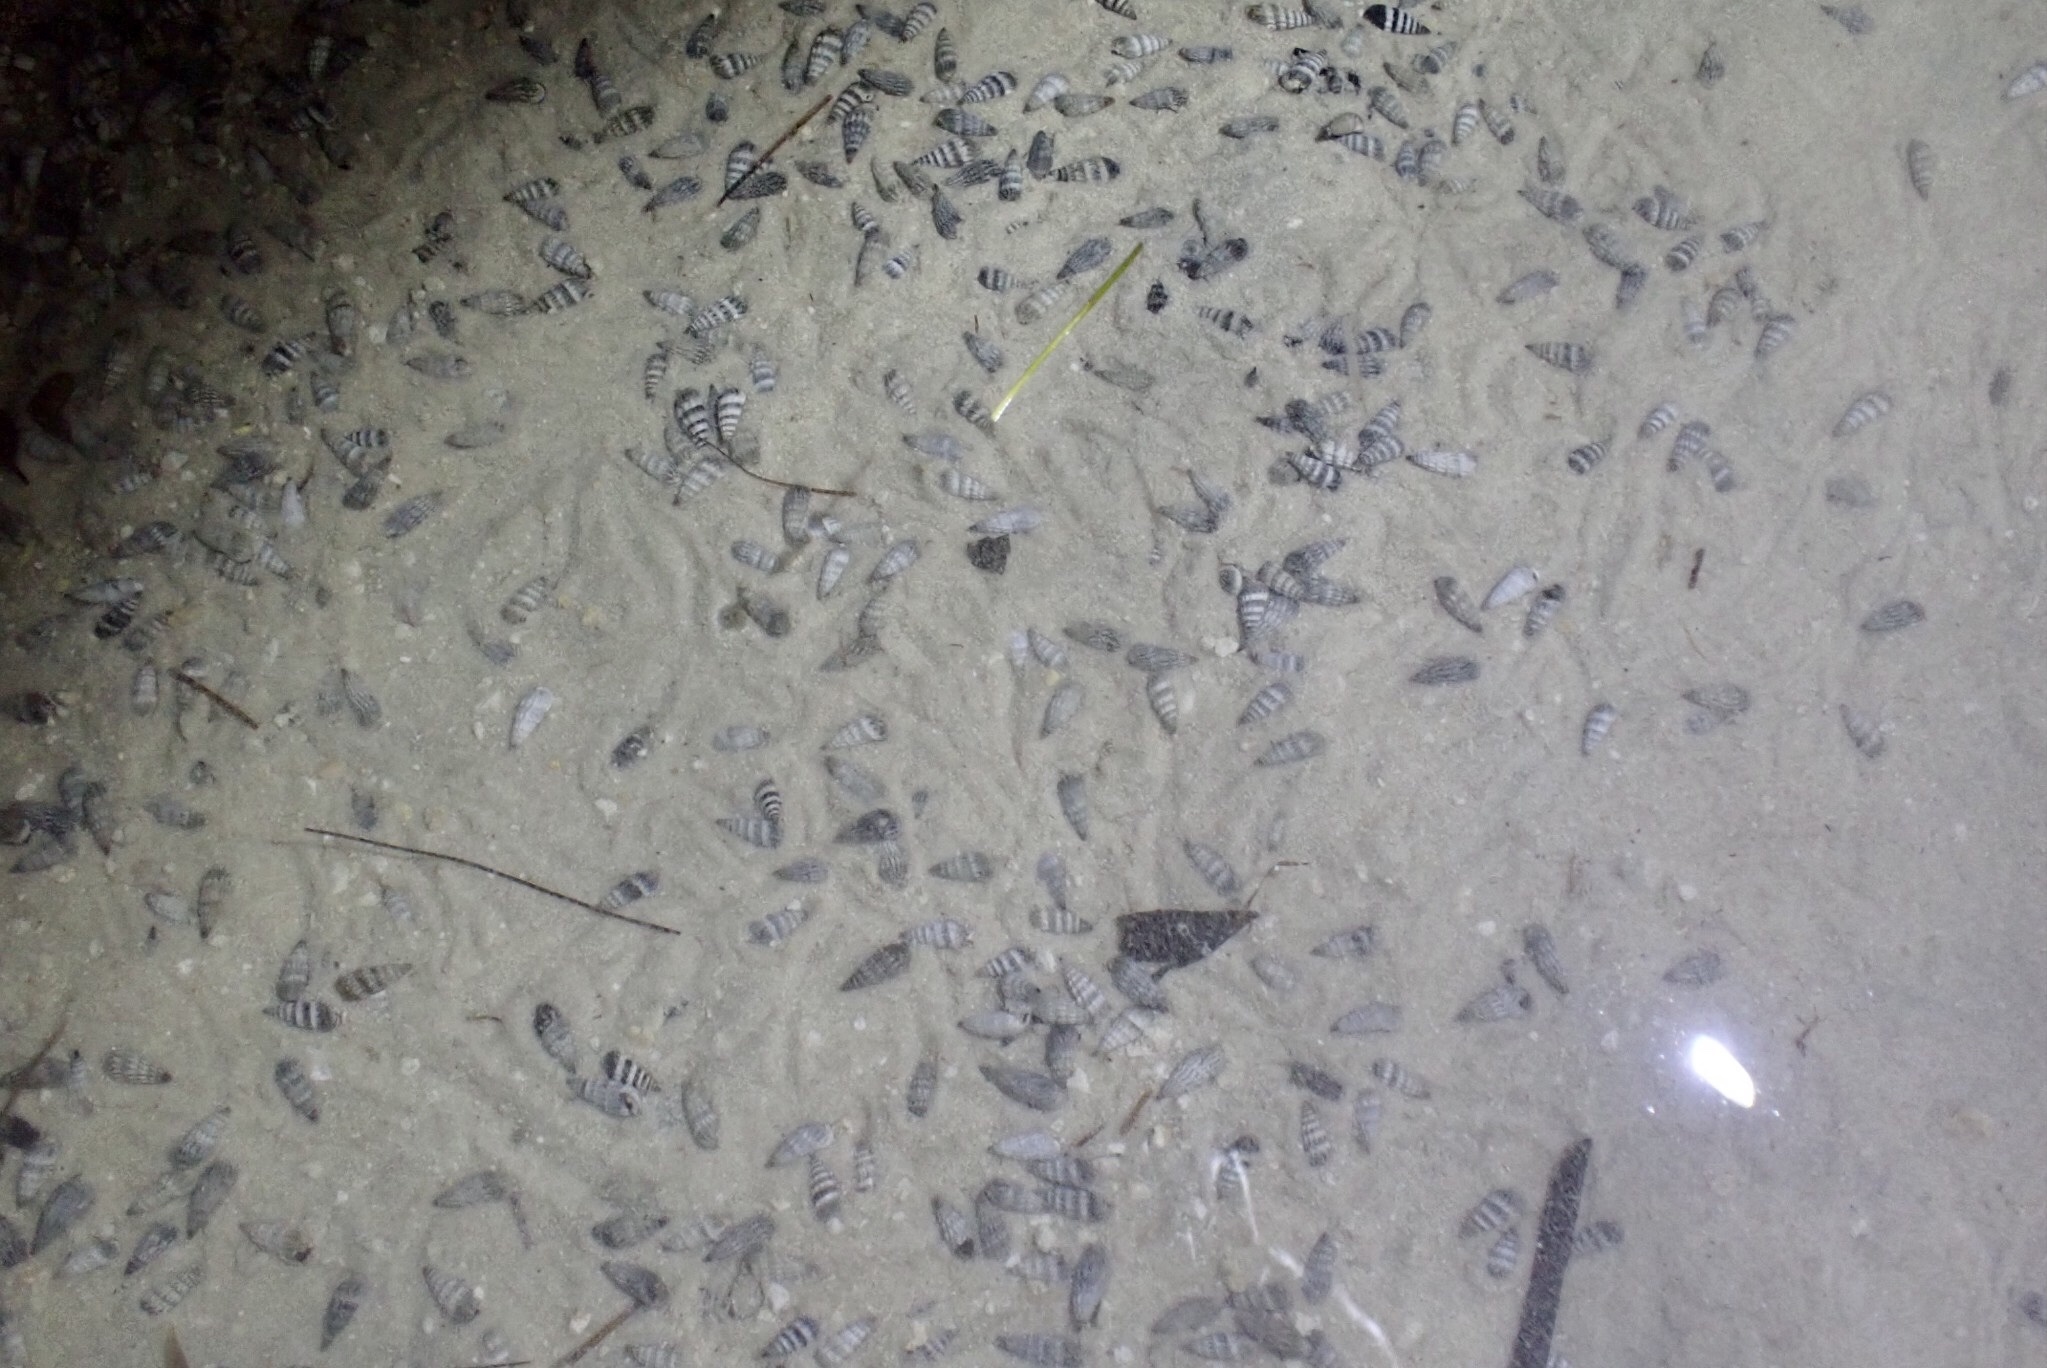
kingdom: Animalia
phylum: Mollusca
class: Gastropoda
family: Batillariidae
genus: Lampanella
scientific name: Lampanella minima
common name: West indian false cerith
